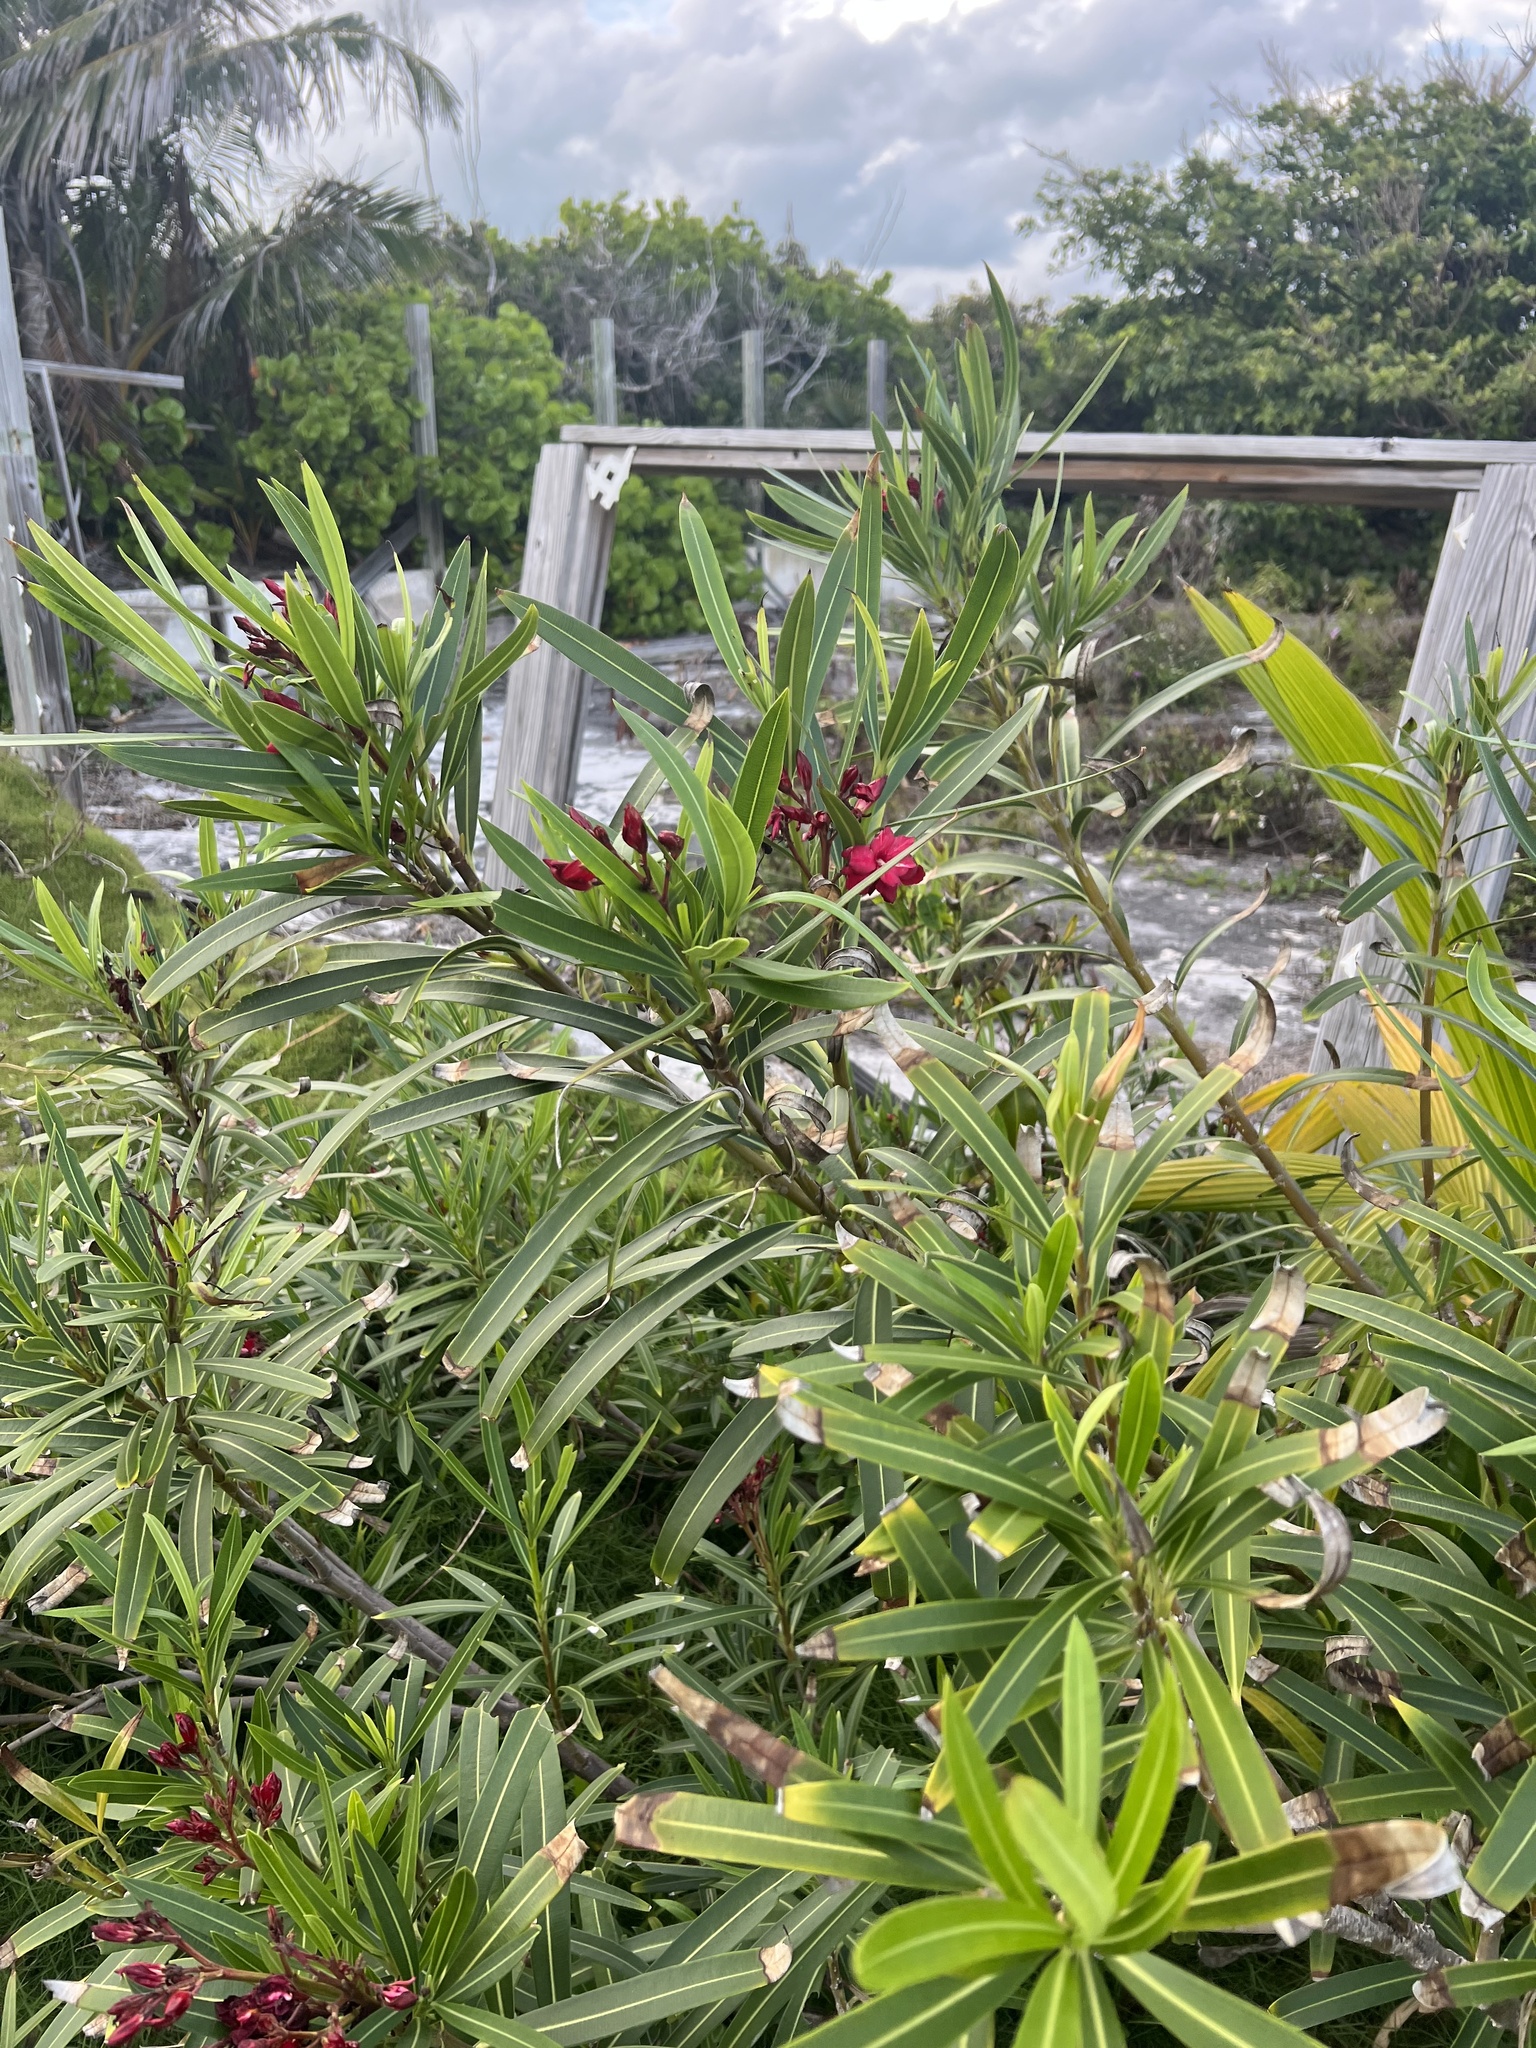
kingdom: Plantae
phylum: Tracheophyta
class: Magnoliopsida
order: Gentianales
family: Apocynaceae
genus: Nerium
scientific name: Nerium oleander
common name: Oleander
